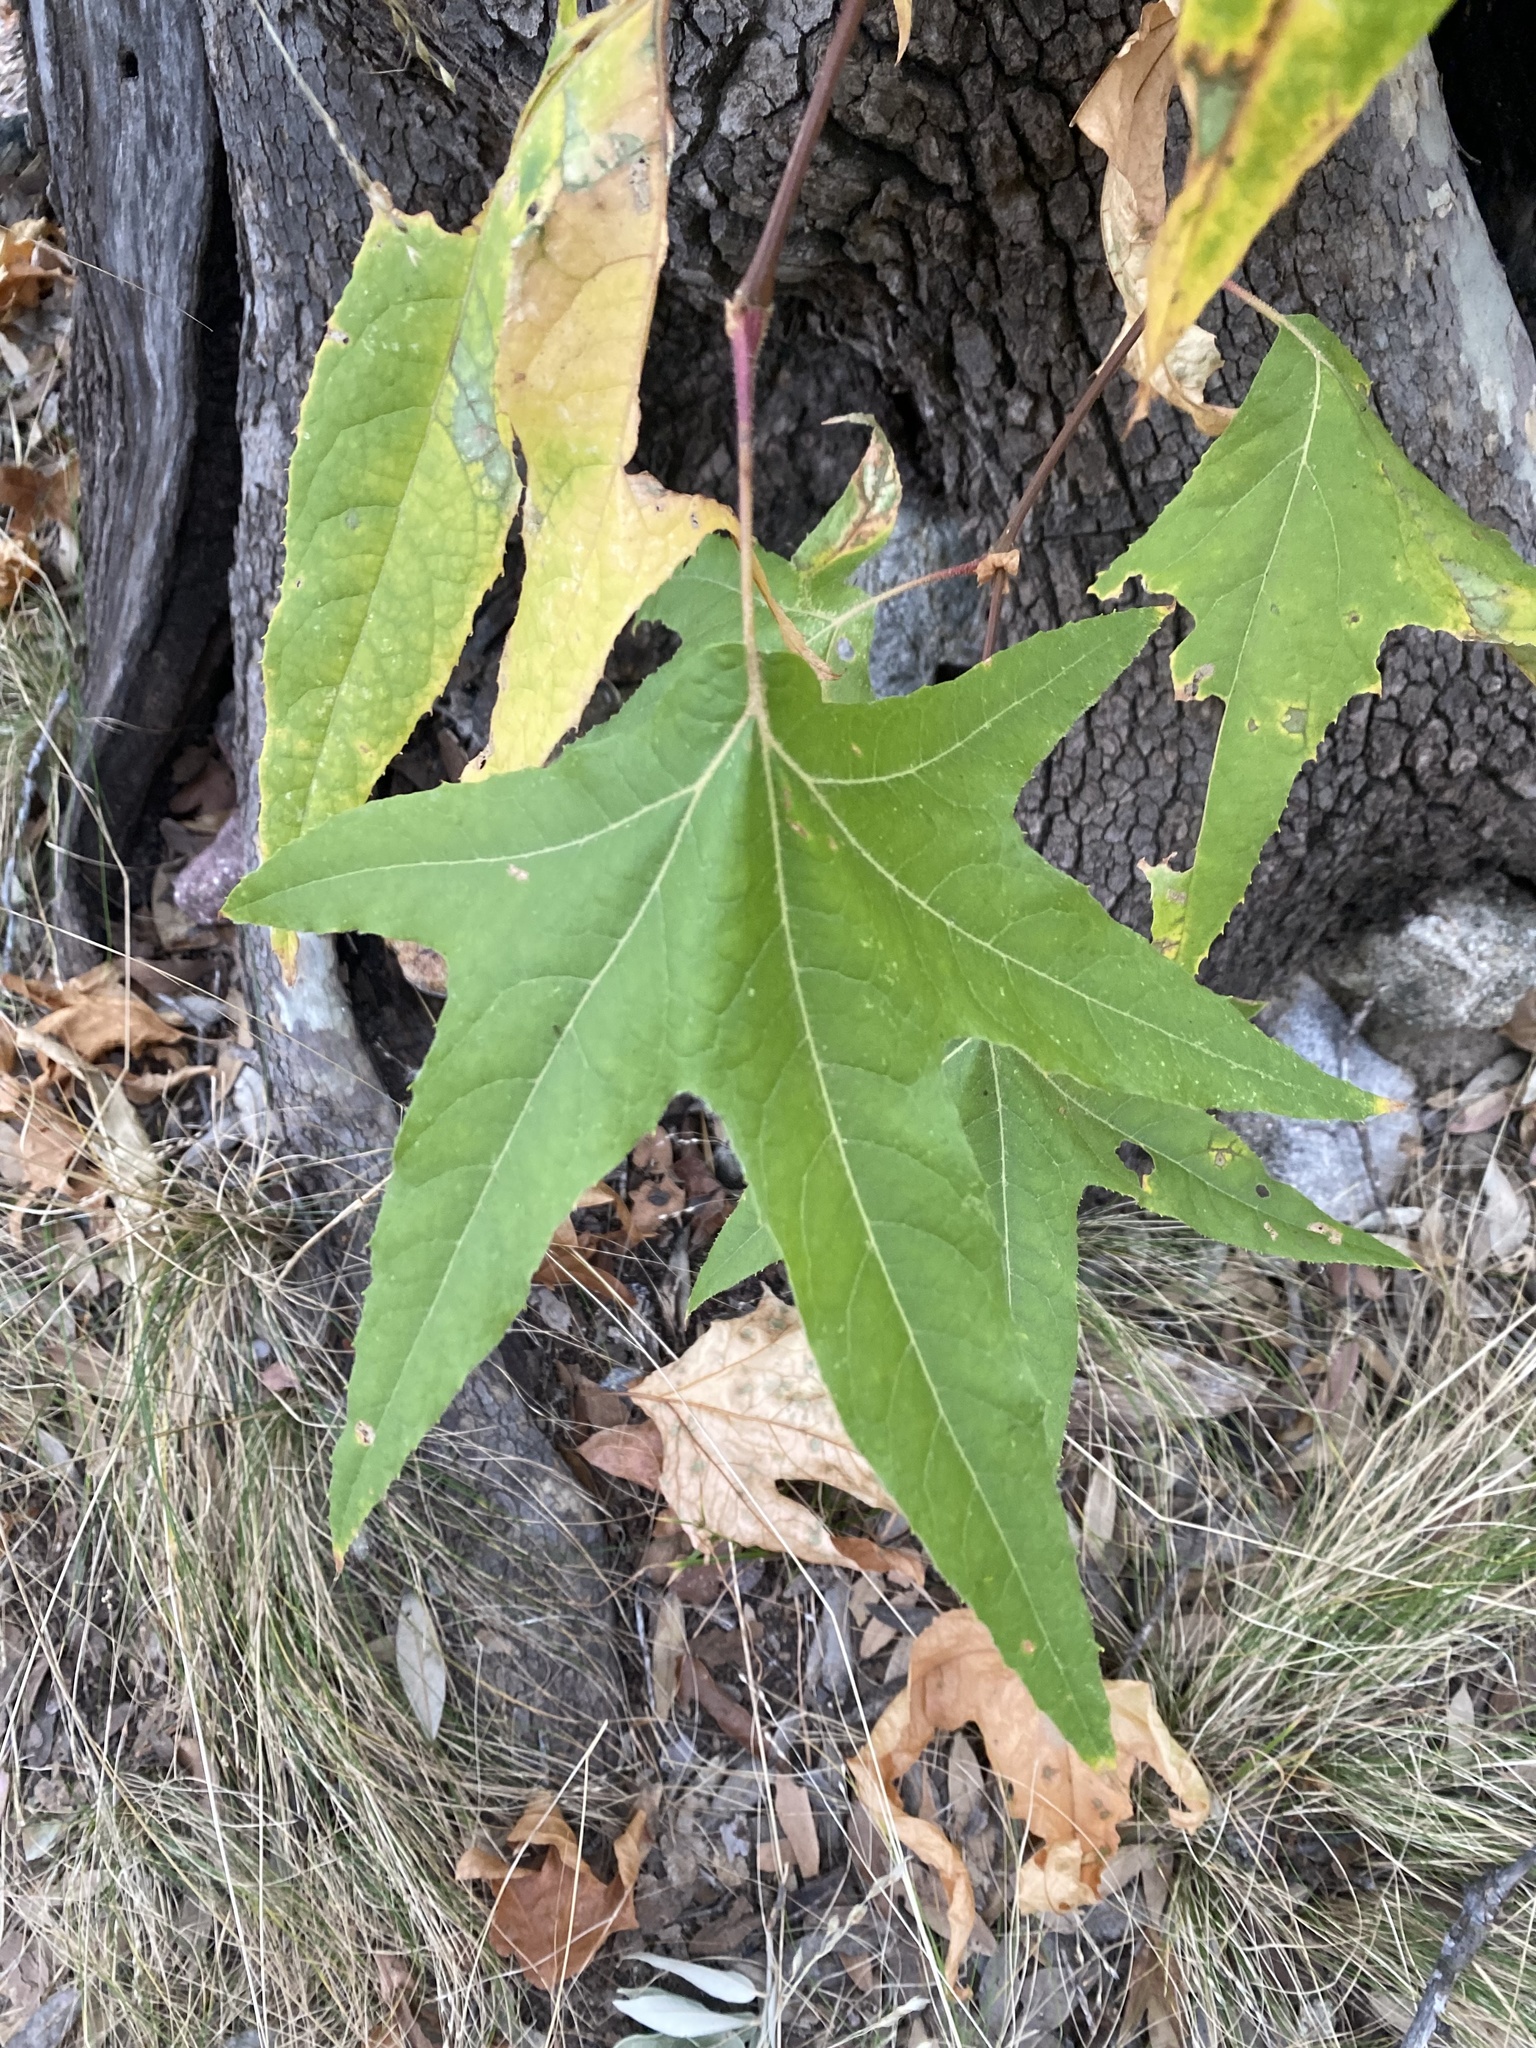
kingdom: Plantae
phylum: Tracheophyta
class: Magnoliopsida
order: Proteales
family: Platanaceae
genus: Platanus
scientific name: Platanus wrightii
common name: Arizona sycamore
